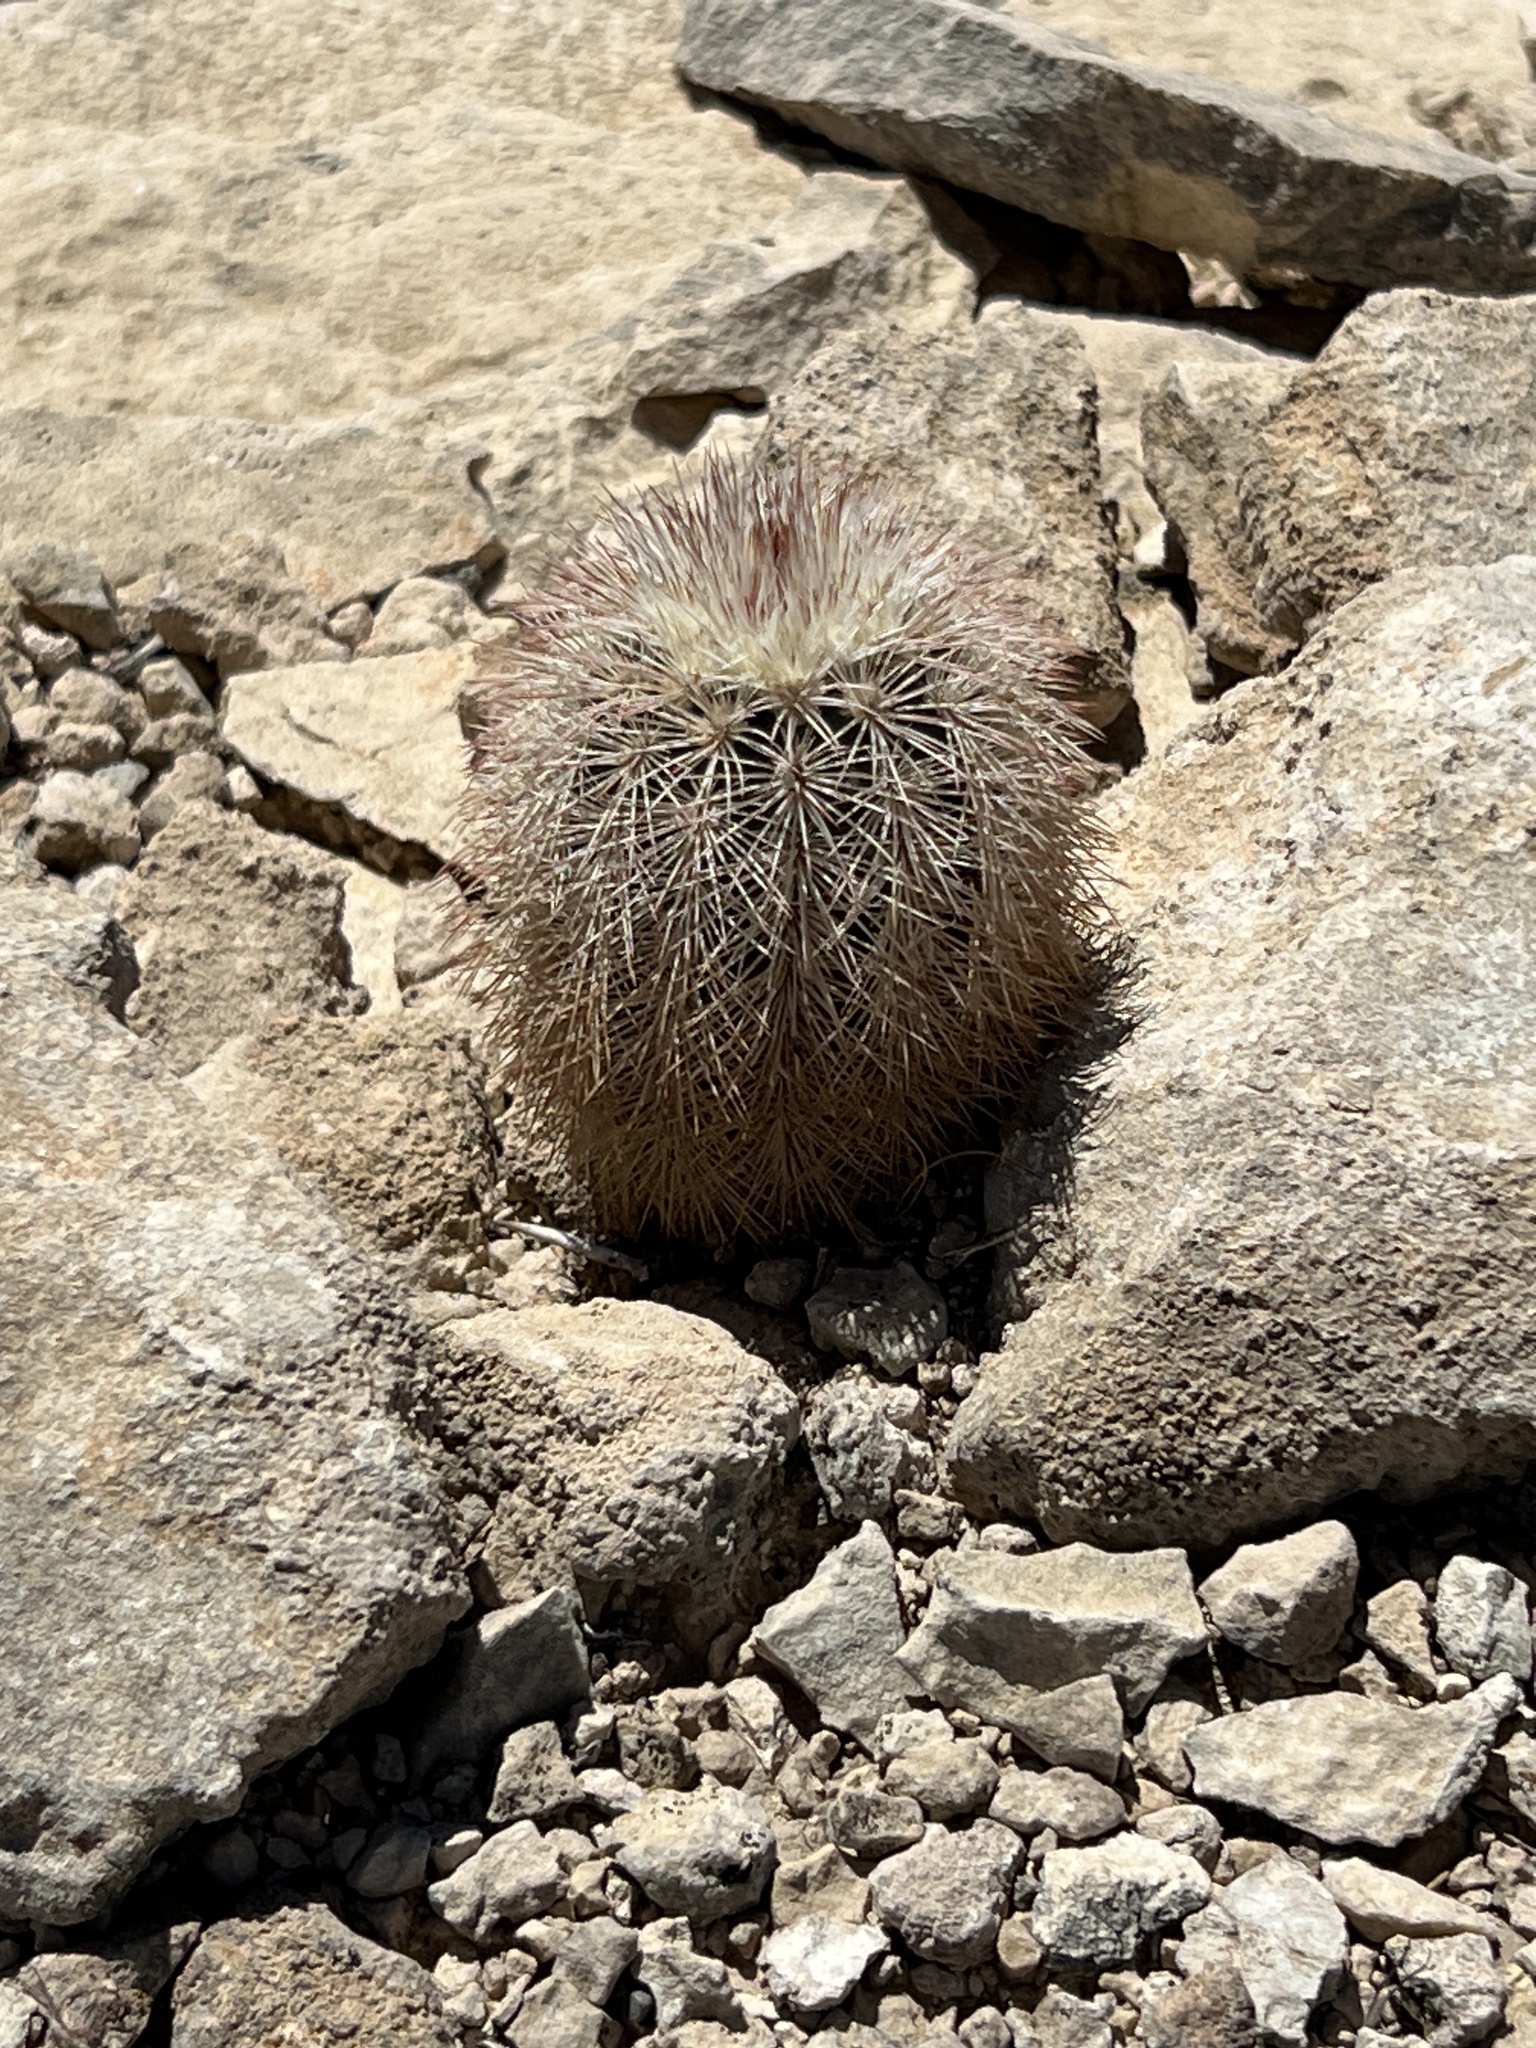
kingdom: Plantae
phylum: Tracheophyta
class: Magnoliopsida
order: Caryophyllales
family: Cactaceae
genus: Echinocereus
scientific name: Echinocereus dasyacanthus
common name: Spiny hedgehog cactus
